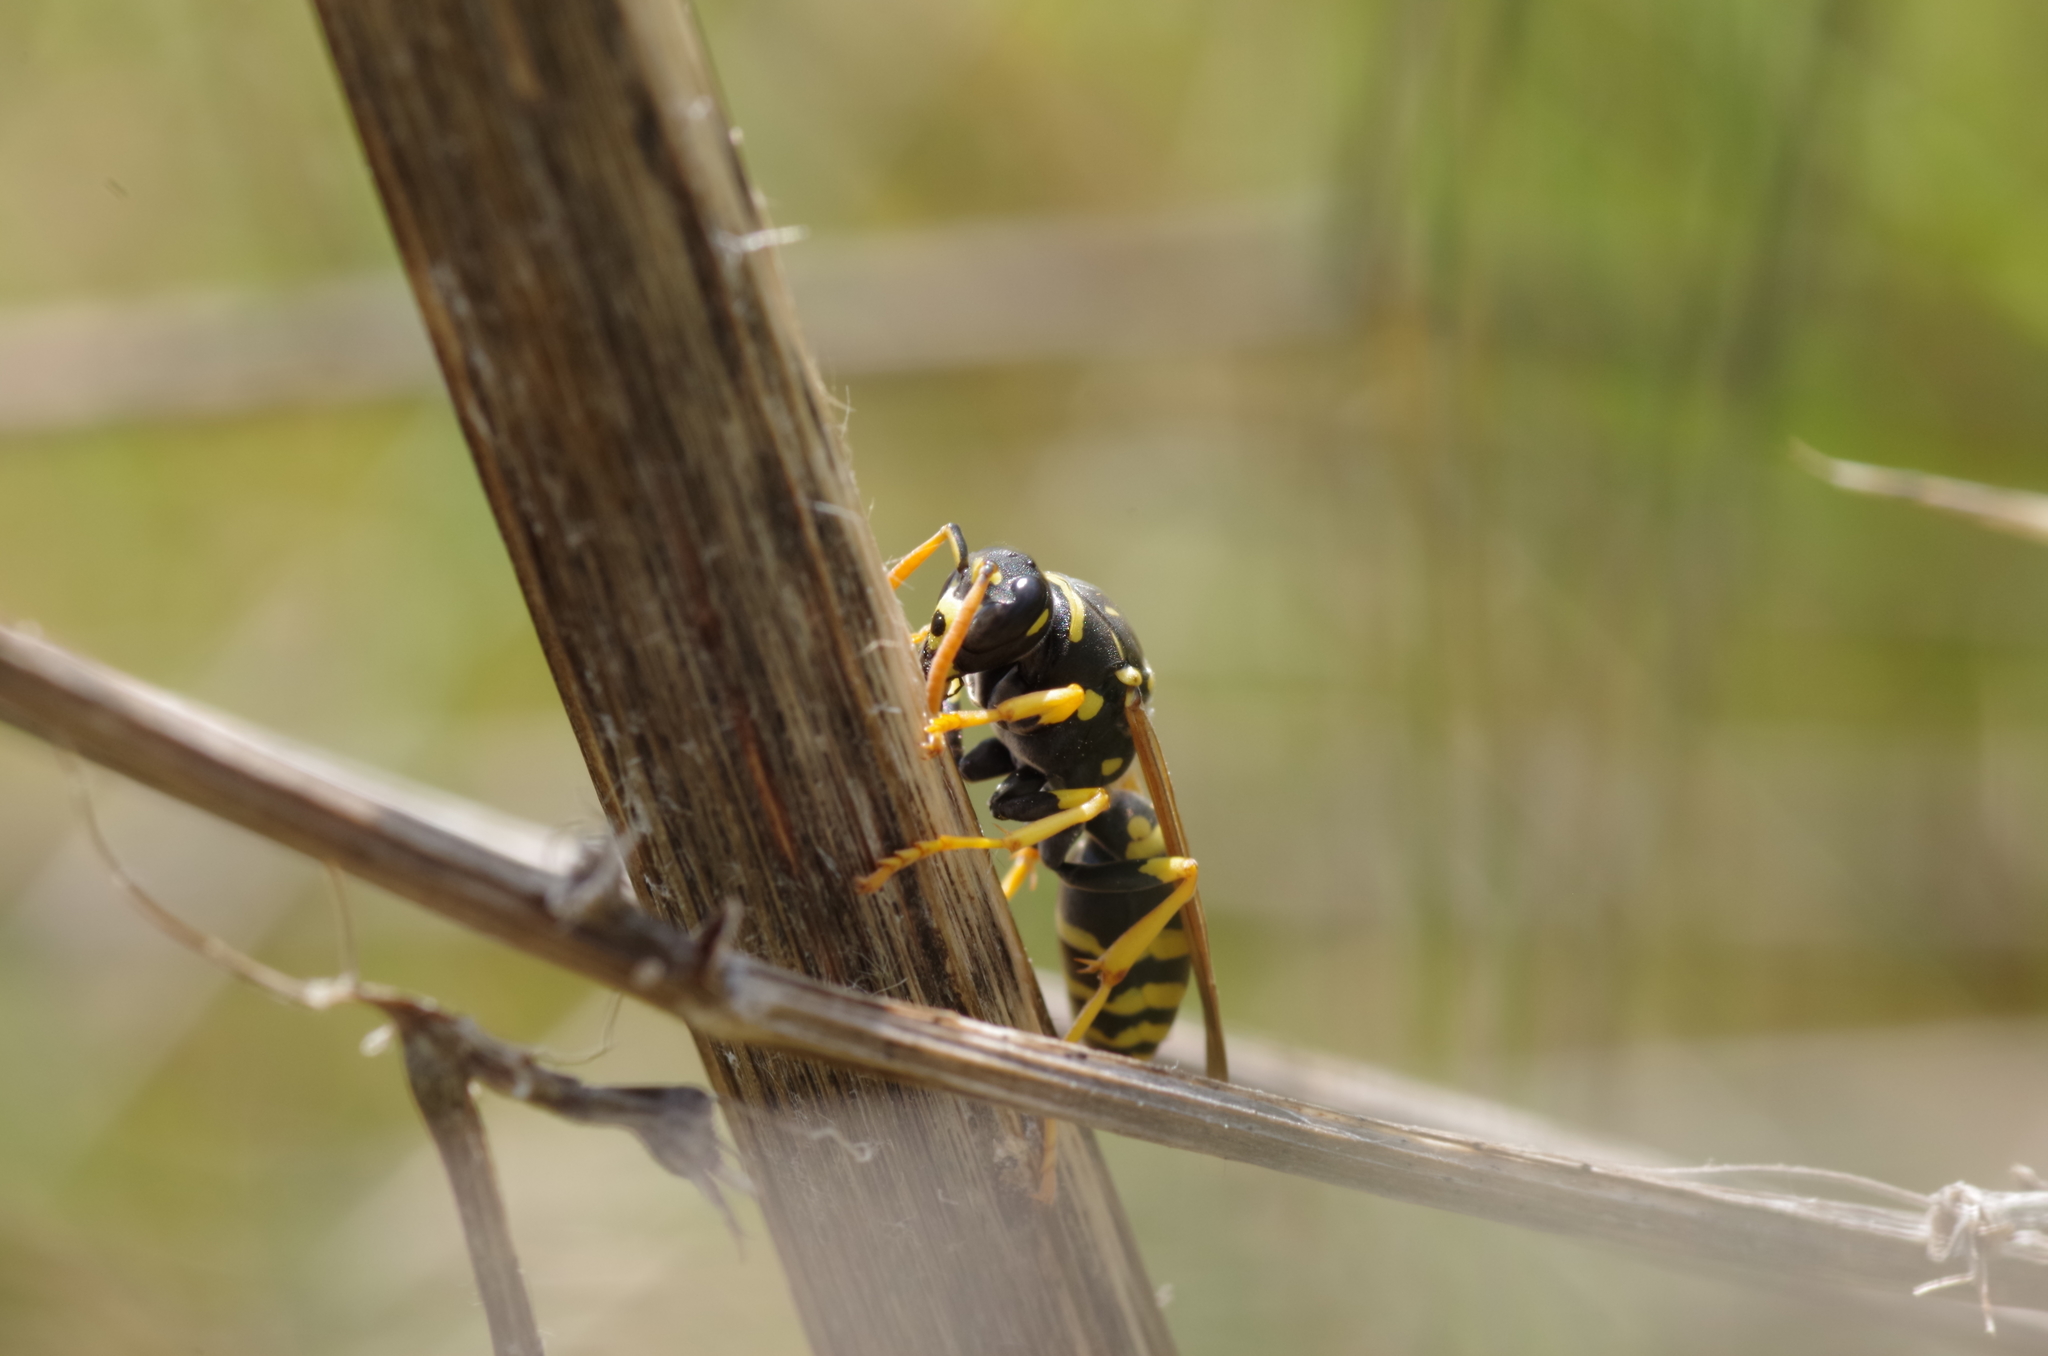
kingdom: Animalia
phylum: Arthropoda
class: Insecta
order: Hymenoptera
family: Eumenidae
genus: Polistes
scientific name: Polistes gallicus
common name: Paper wasp
